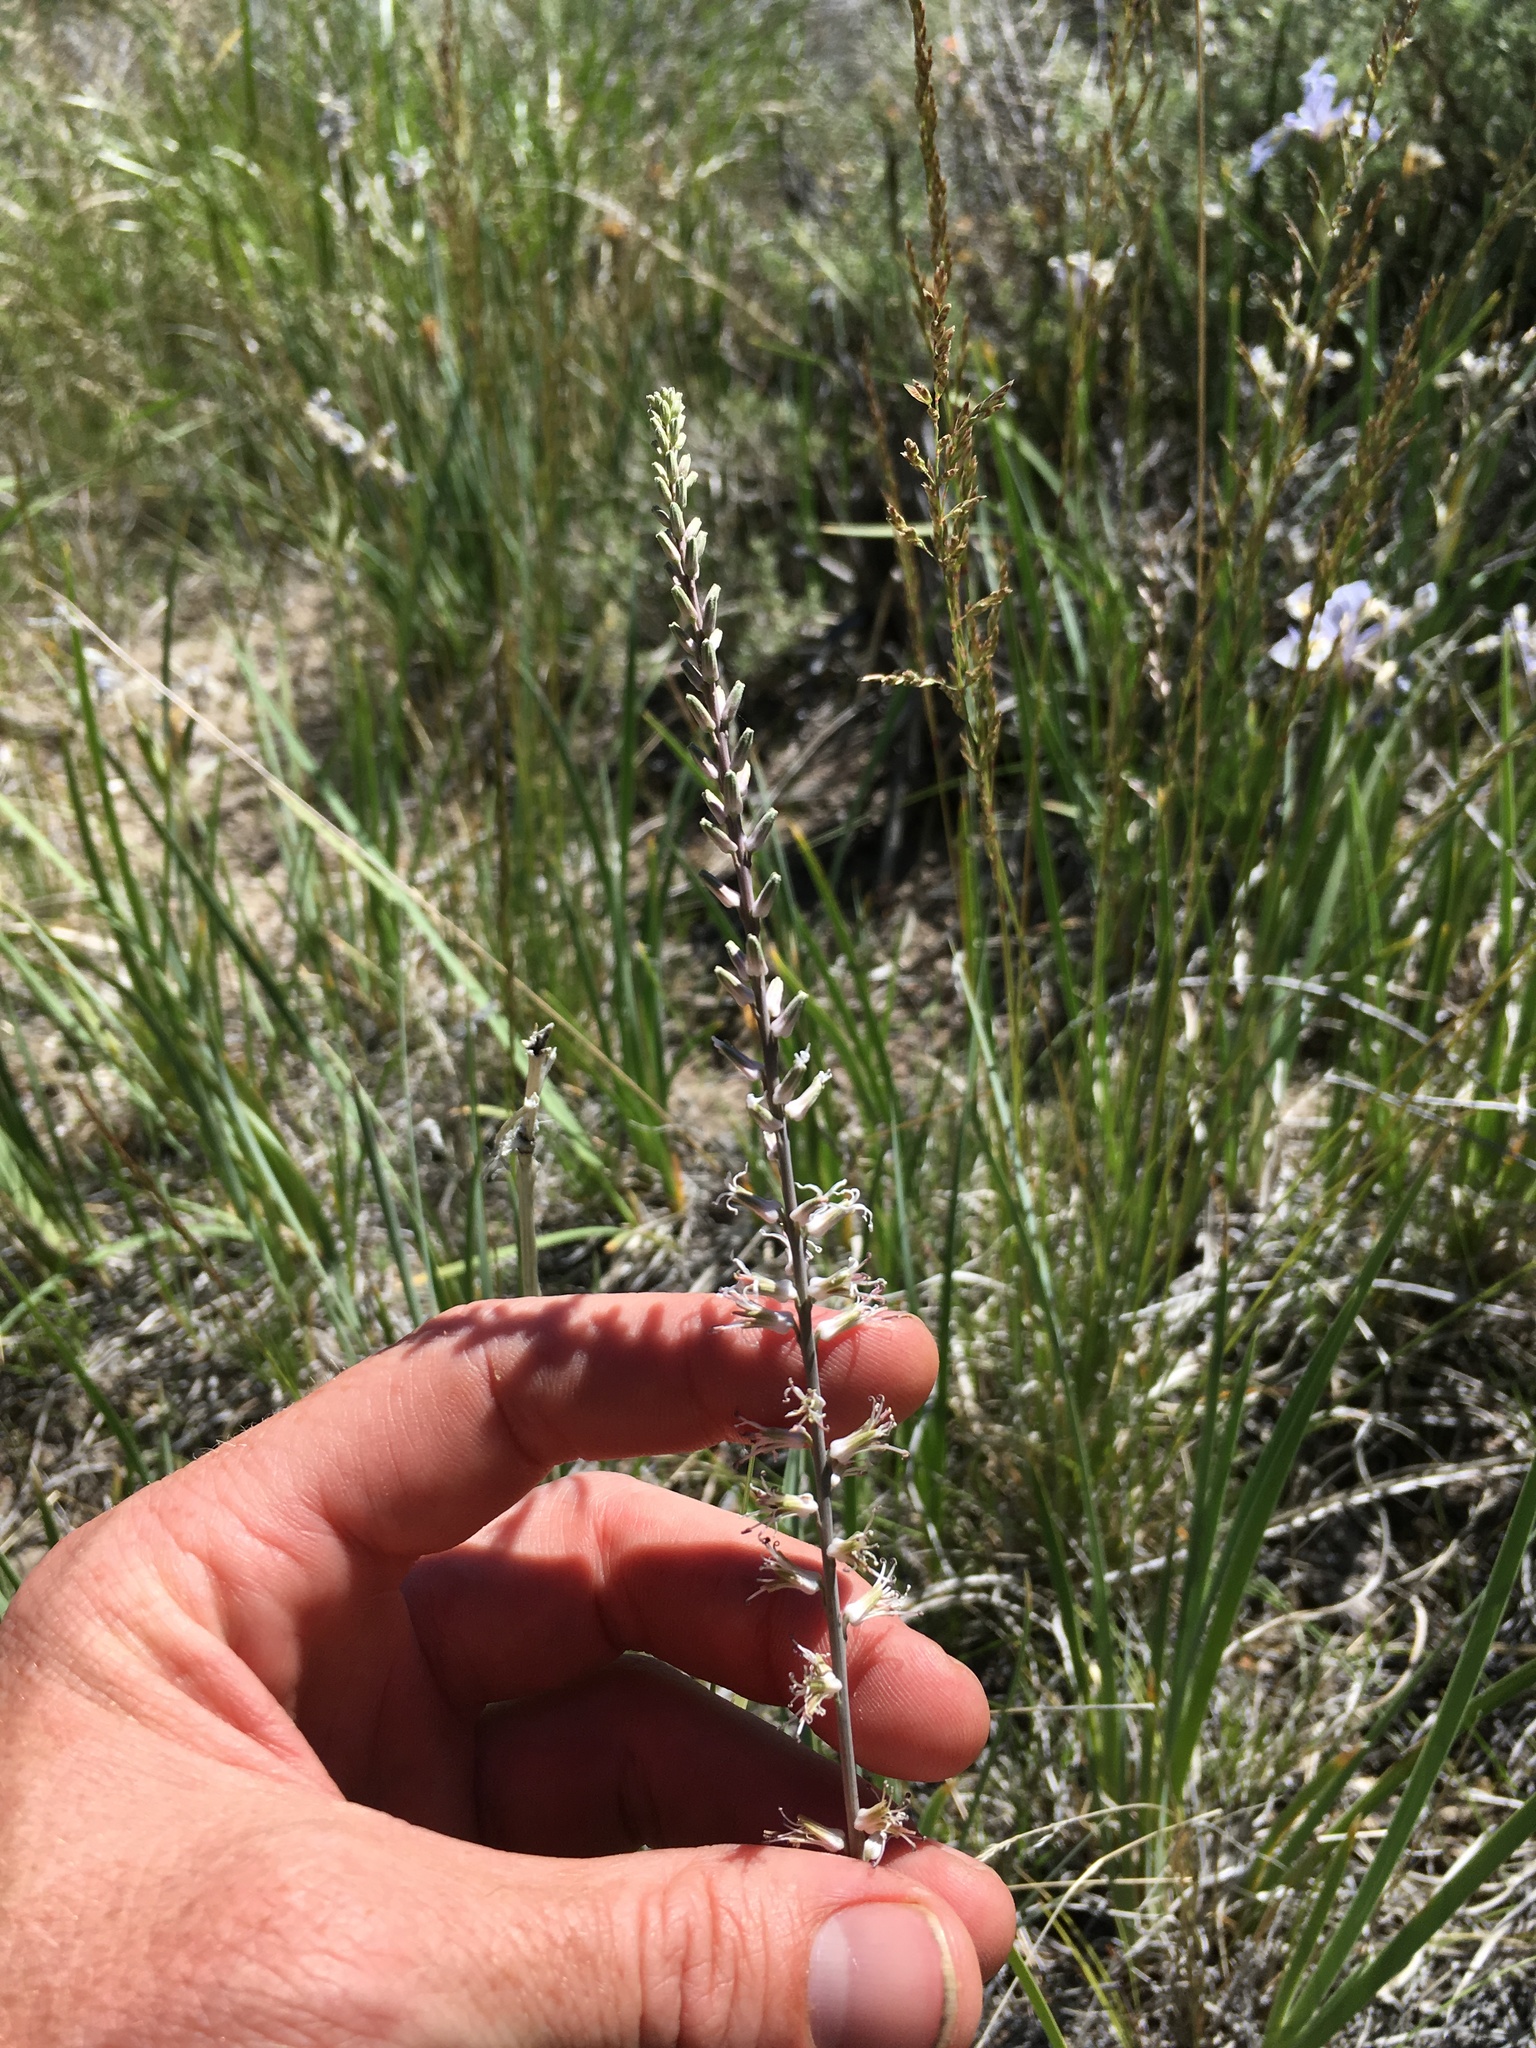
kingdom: Plantae
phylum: Tracheophyta
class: Magnoliopsida
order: Brassicales
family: Brassicaceae
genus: Thelypodium
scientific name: Thelypodium crispum
